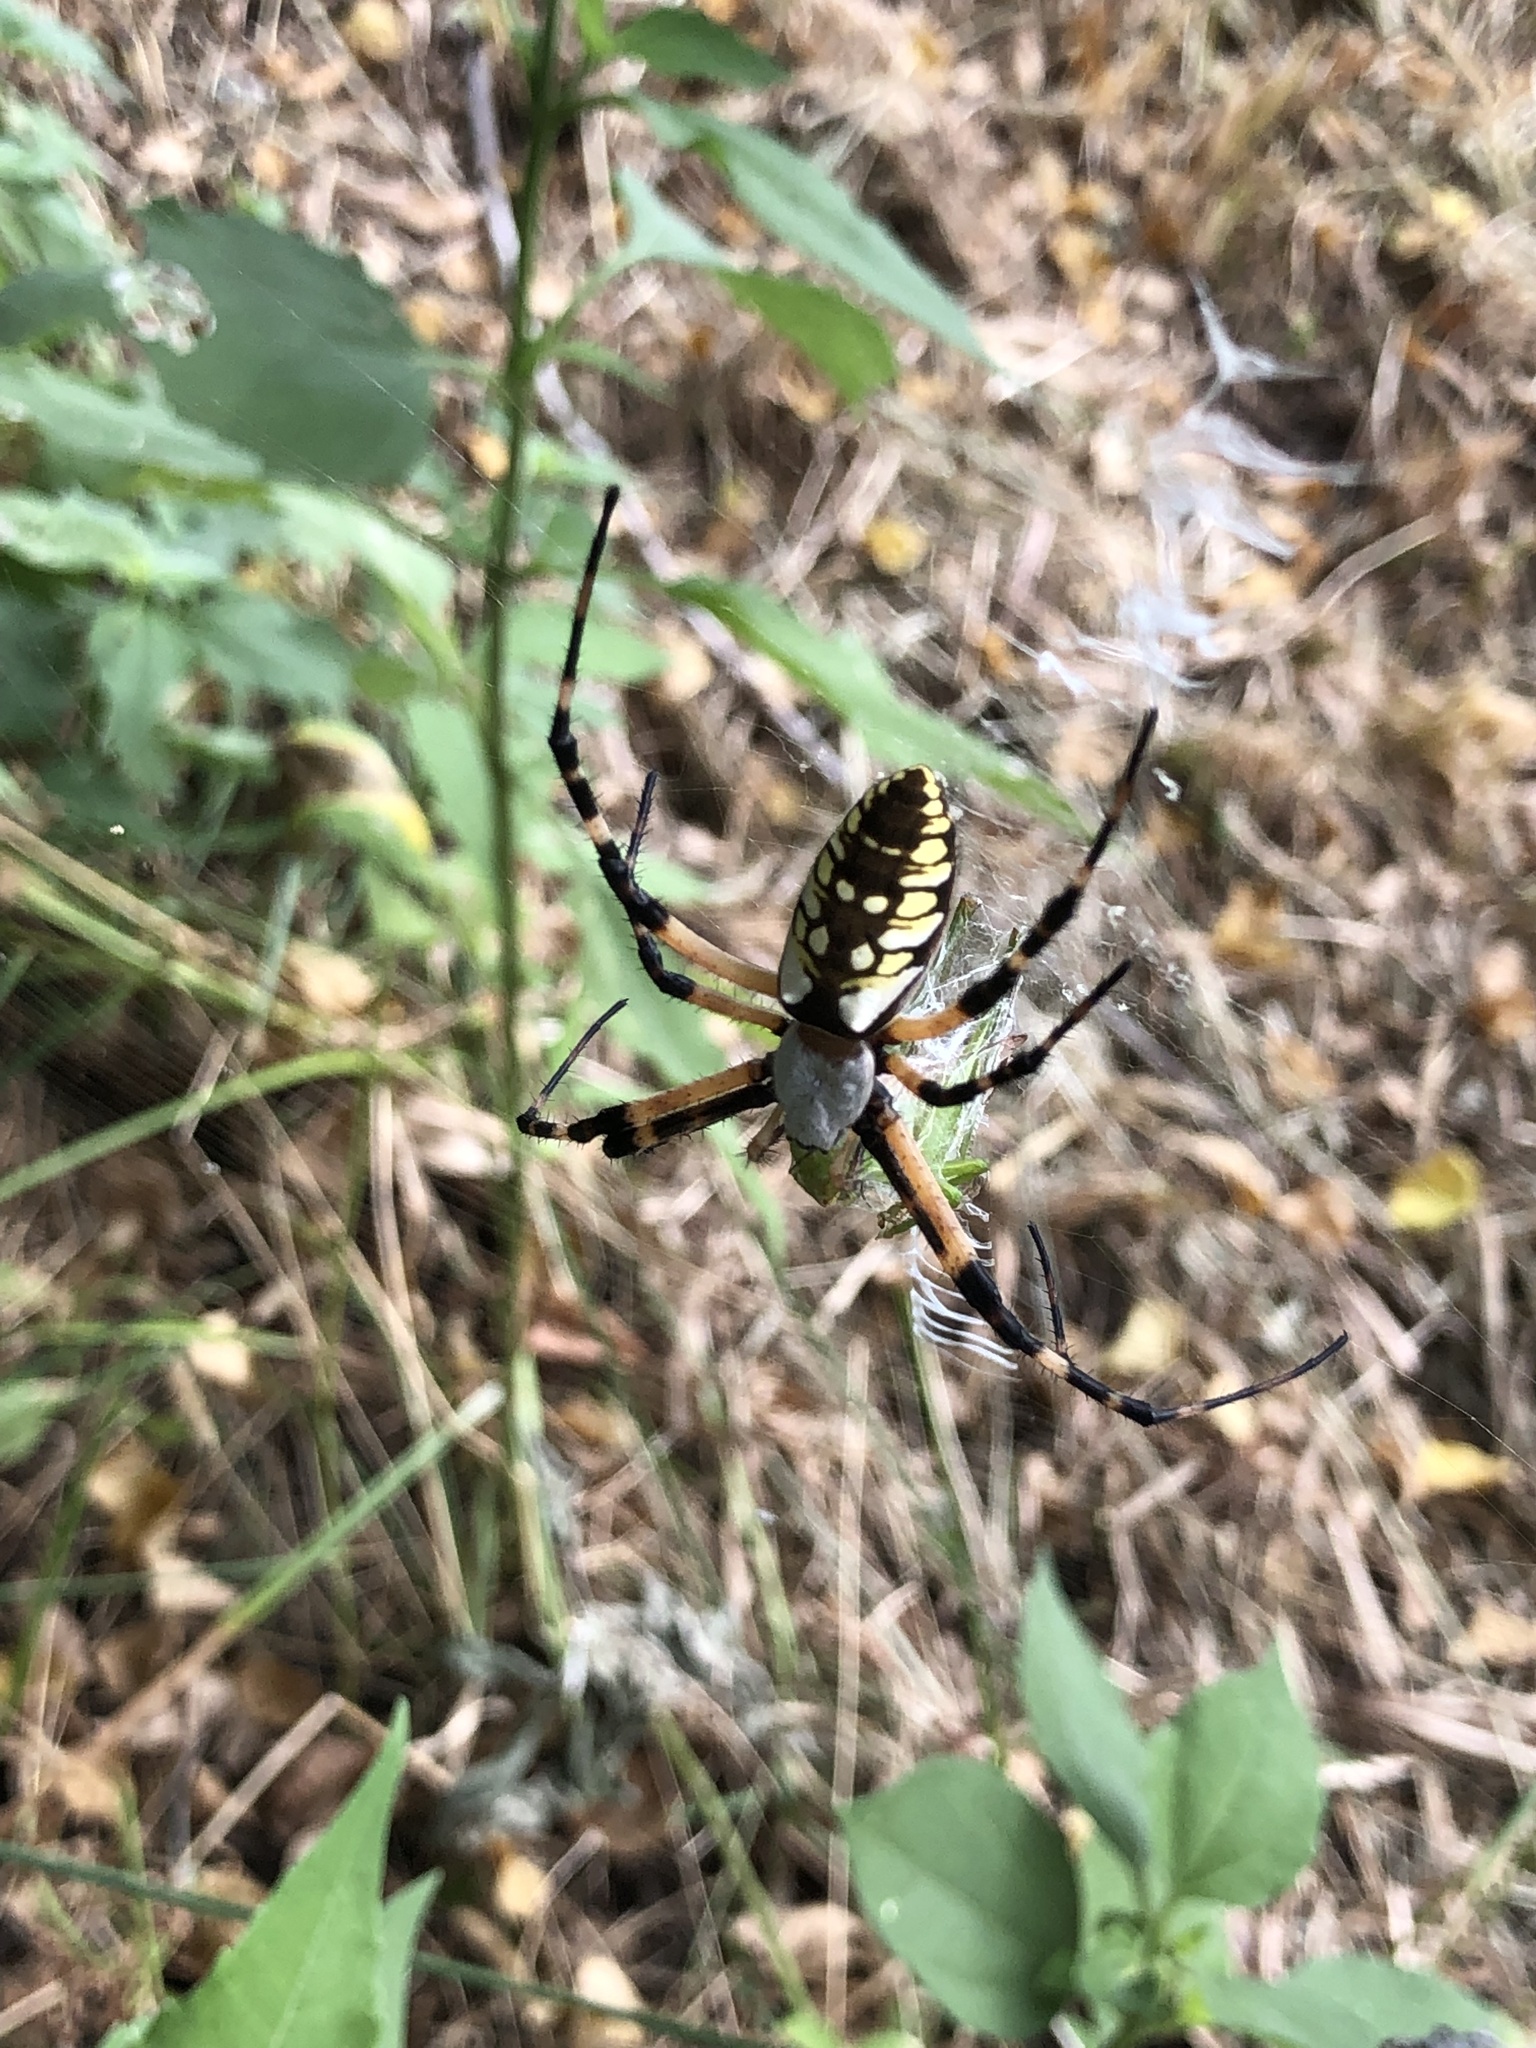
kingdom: Animalia
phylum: Arthropoda
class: Arachnida
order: Araneae
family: Araneidae
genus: Argiope
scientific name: Argiope aurantia
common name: Orb weavers
